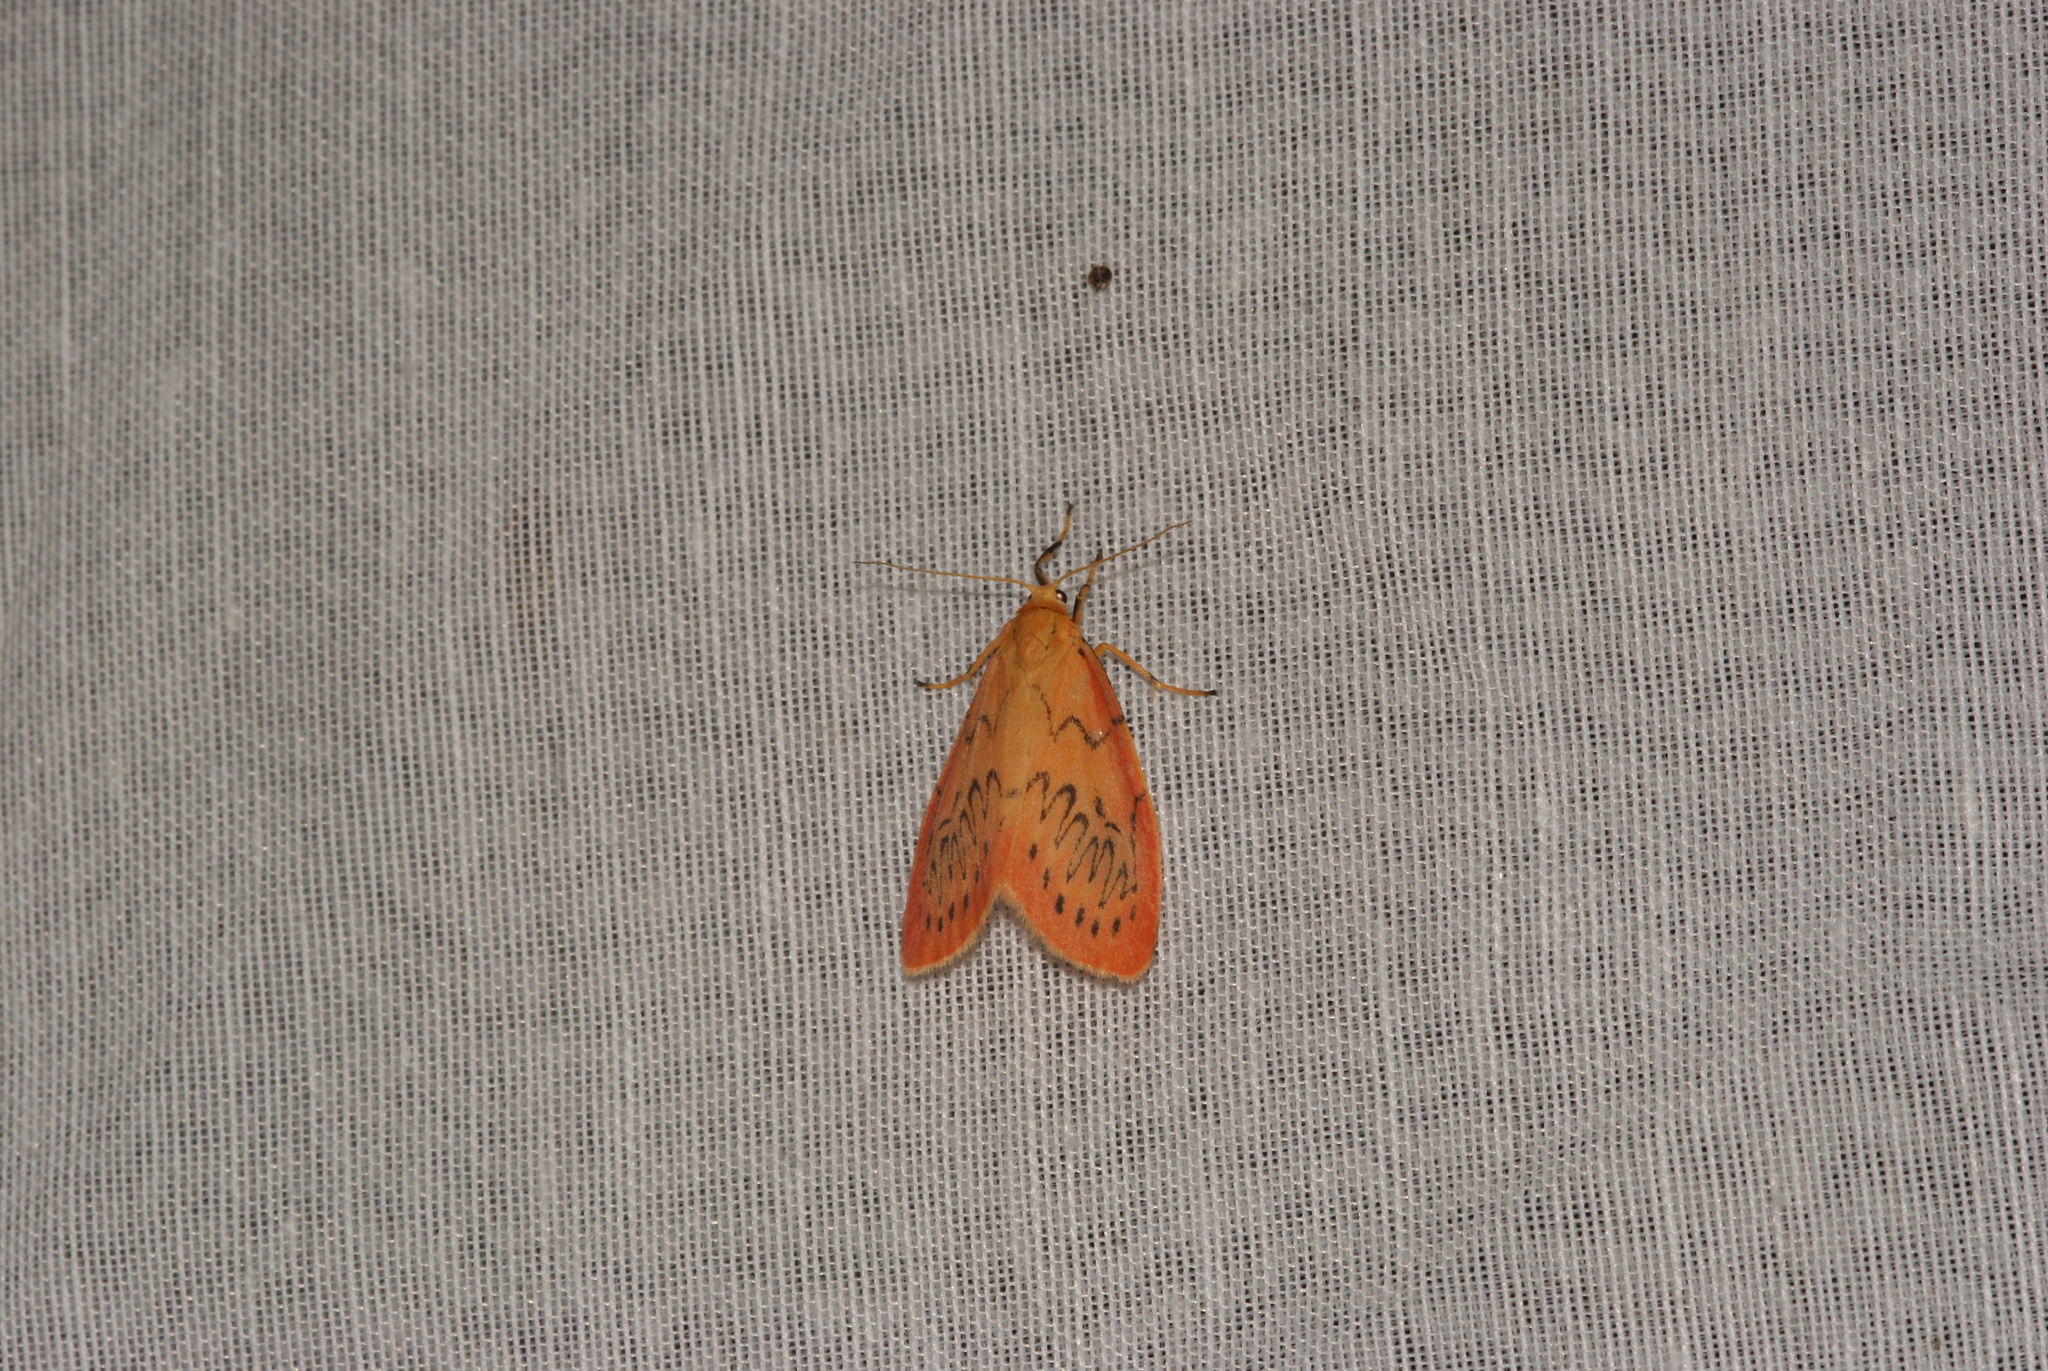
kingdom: Animalia
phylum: Arthropoda
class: Insecta
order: Lepidoptera
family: Erebidae
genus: Miltochrista
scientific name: Miltochrista miniata
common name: Rosy footman
